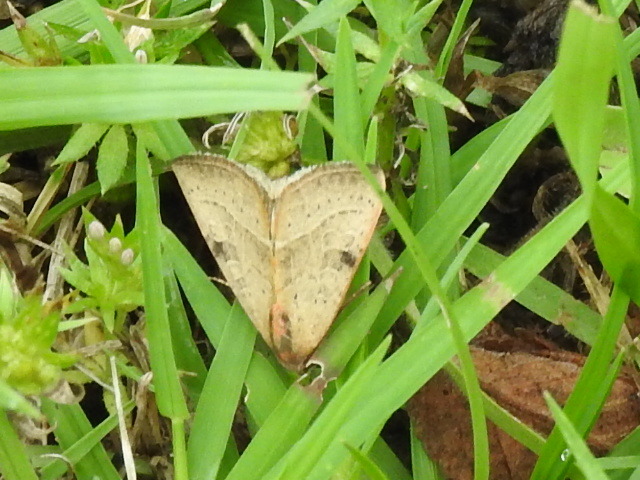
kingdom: Animalia
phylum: Arthropoda
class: Insecta
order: Lepidoptera
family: Noctuidae
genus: Galgula
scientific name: Galgula partita
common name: Wedgeling
